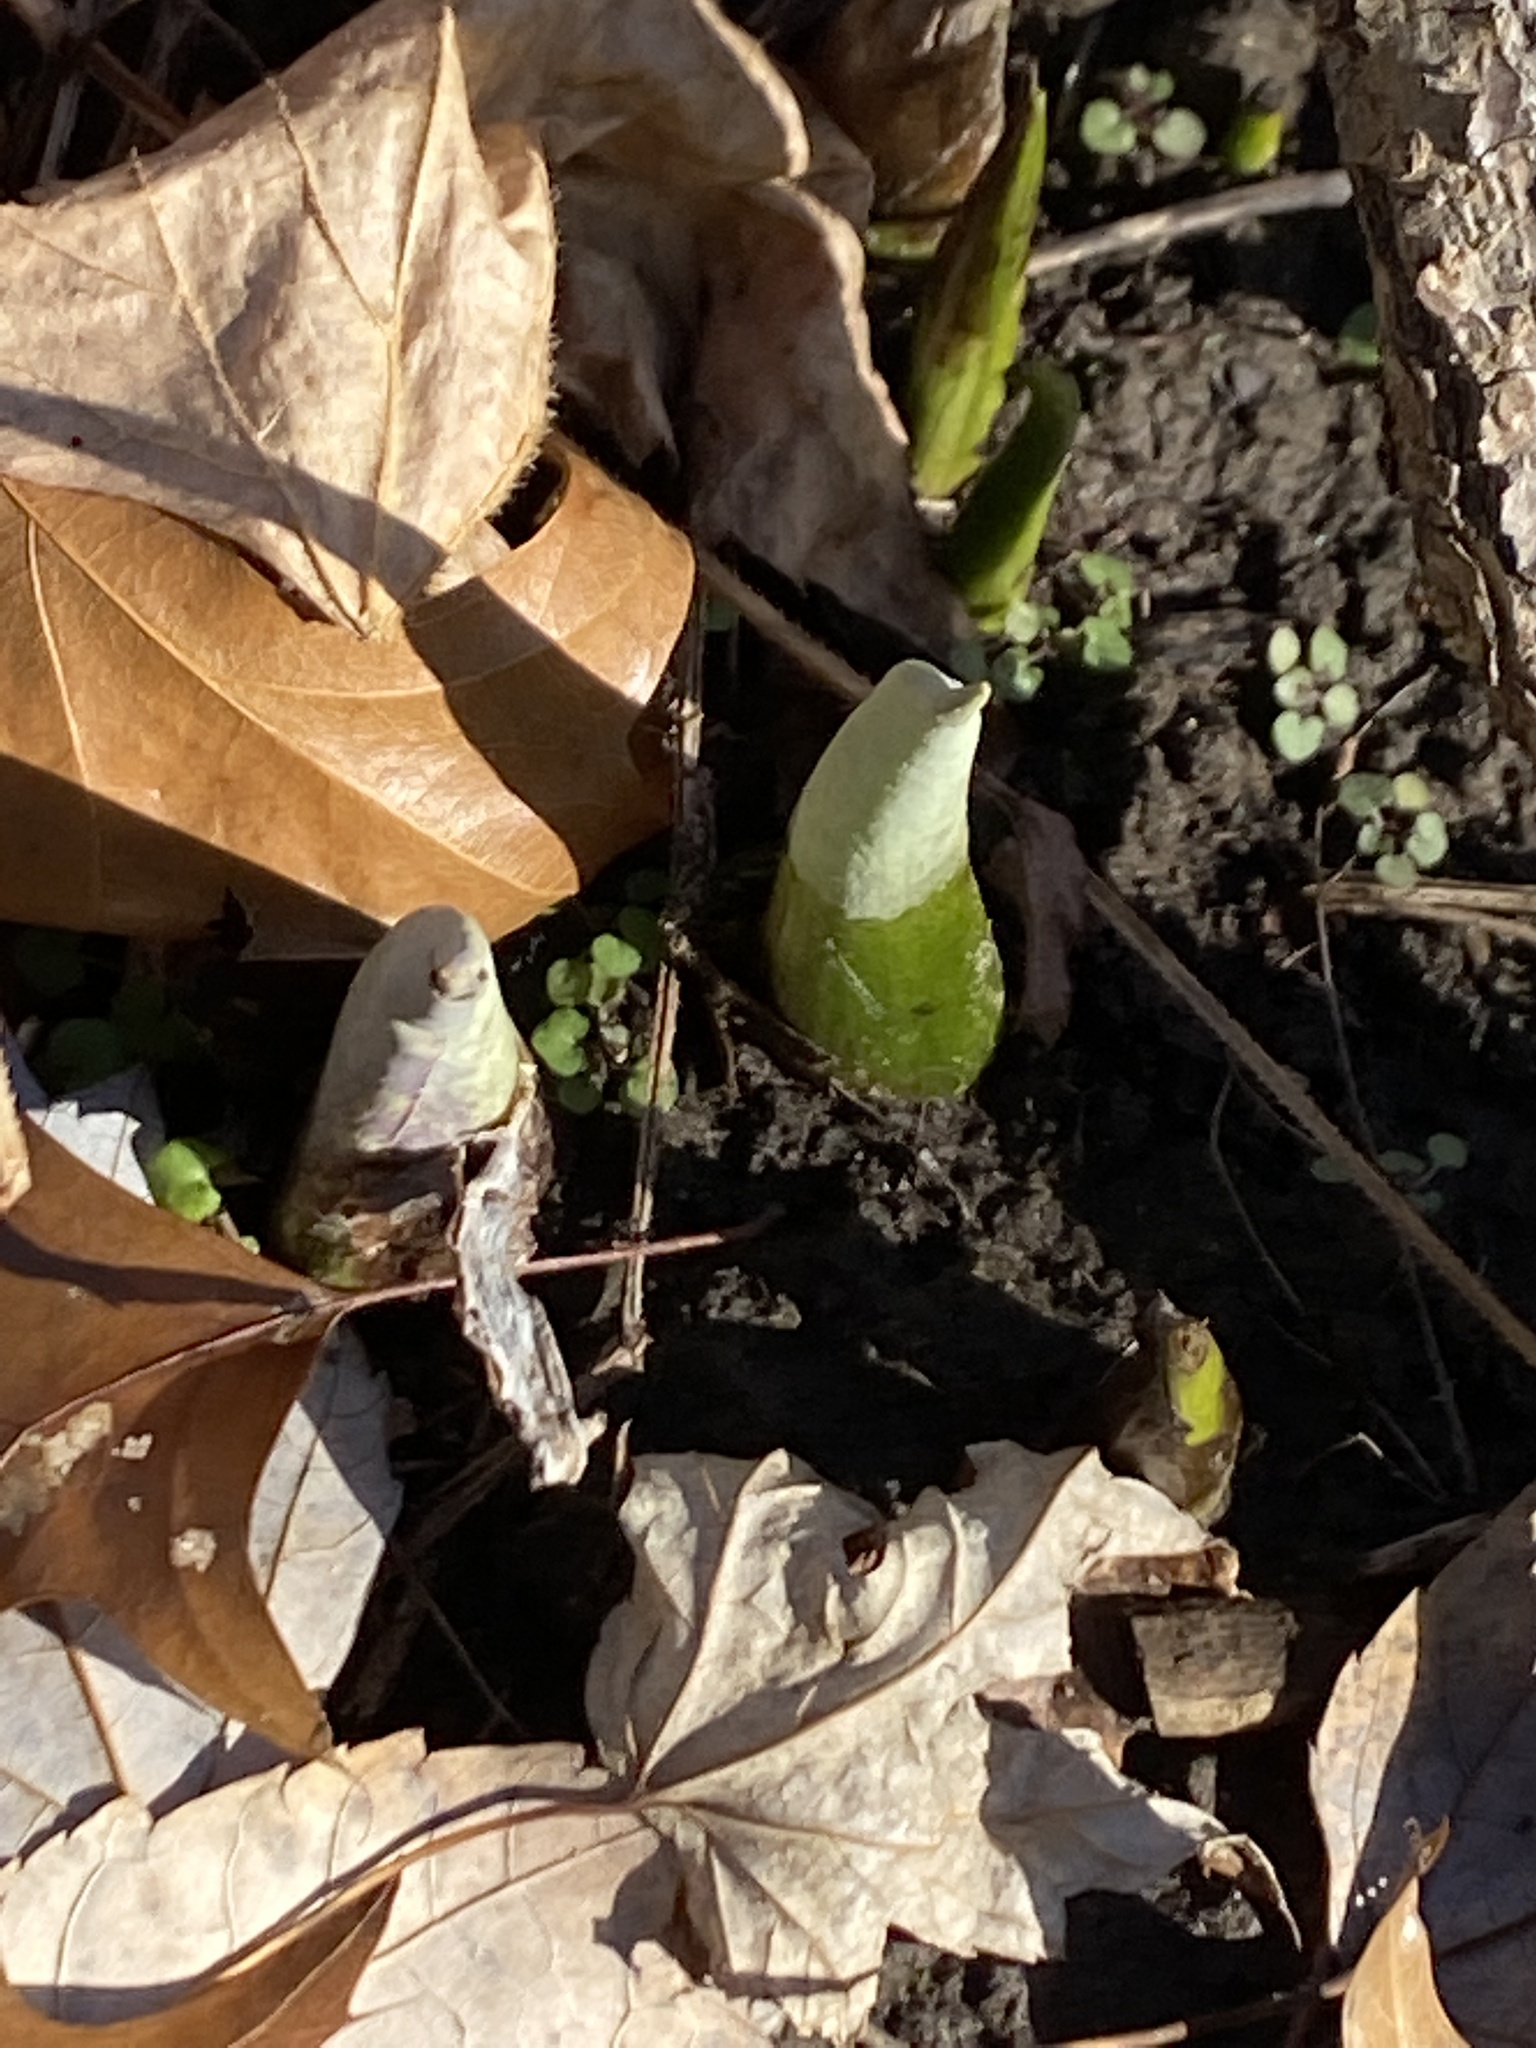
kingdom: Plantae
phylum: Tracheophyta
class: Liliopsida
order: Alismatales
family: Araceae
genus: Symplocarpus
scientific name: Symplocarpus foetidus
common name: Eastern skunk cabbage
